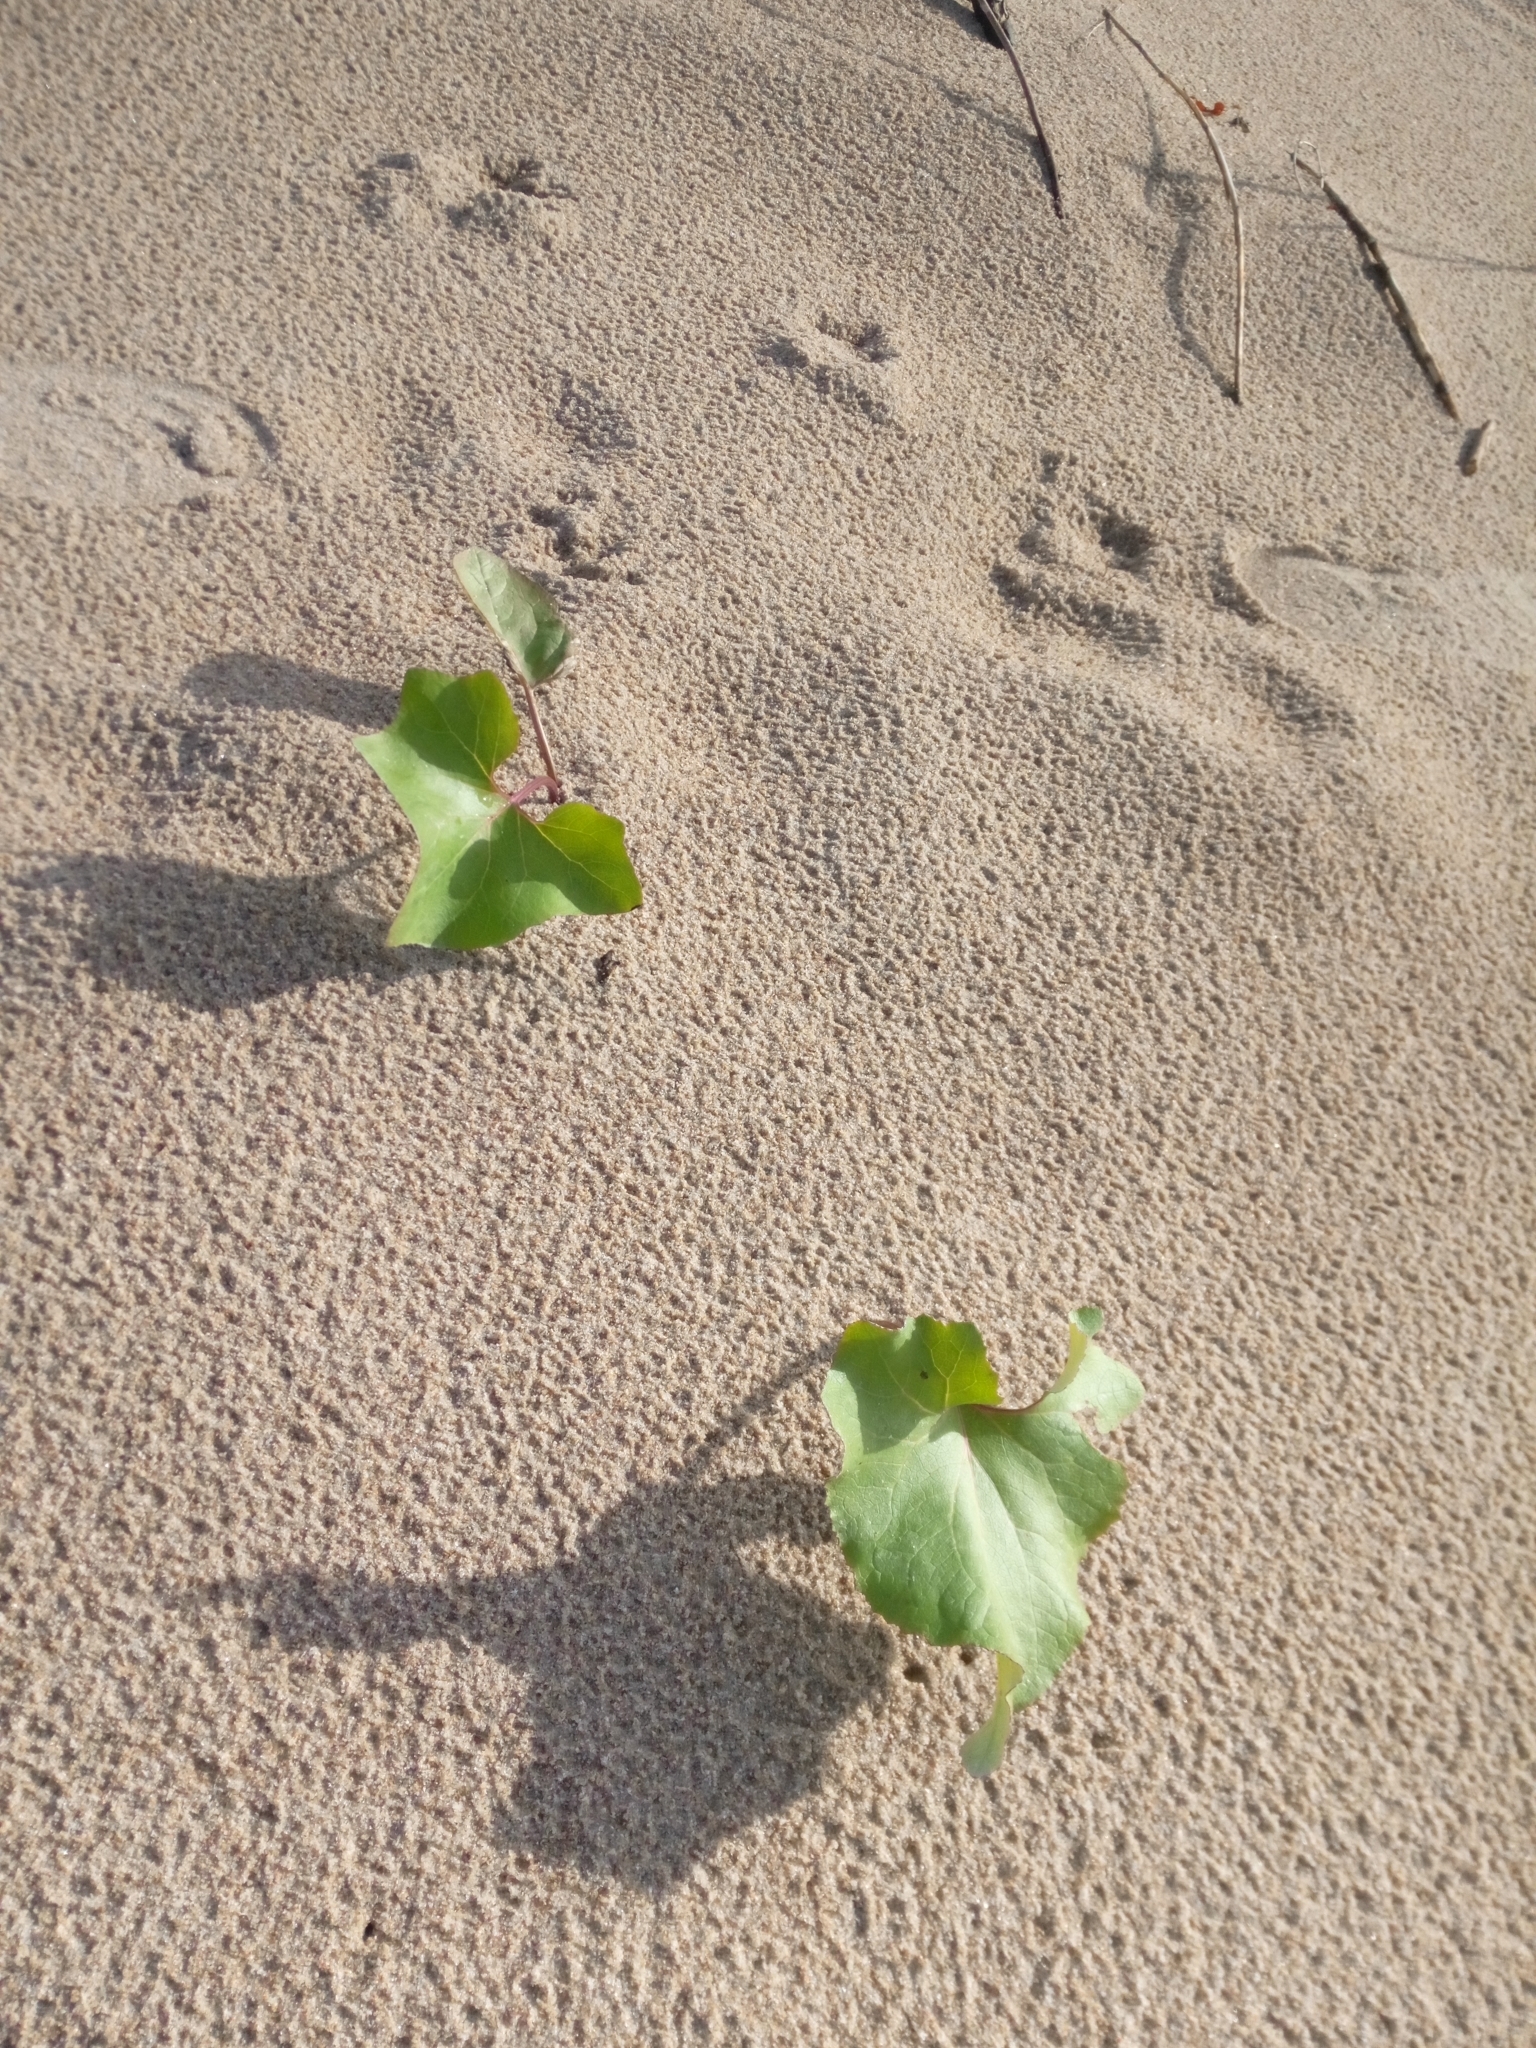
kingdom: Plantae
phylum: Tracheophyta
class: Magnoliopsida
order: Asterales
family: Asteraceae
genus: Petasites
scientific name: Petasites spurius
